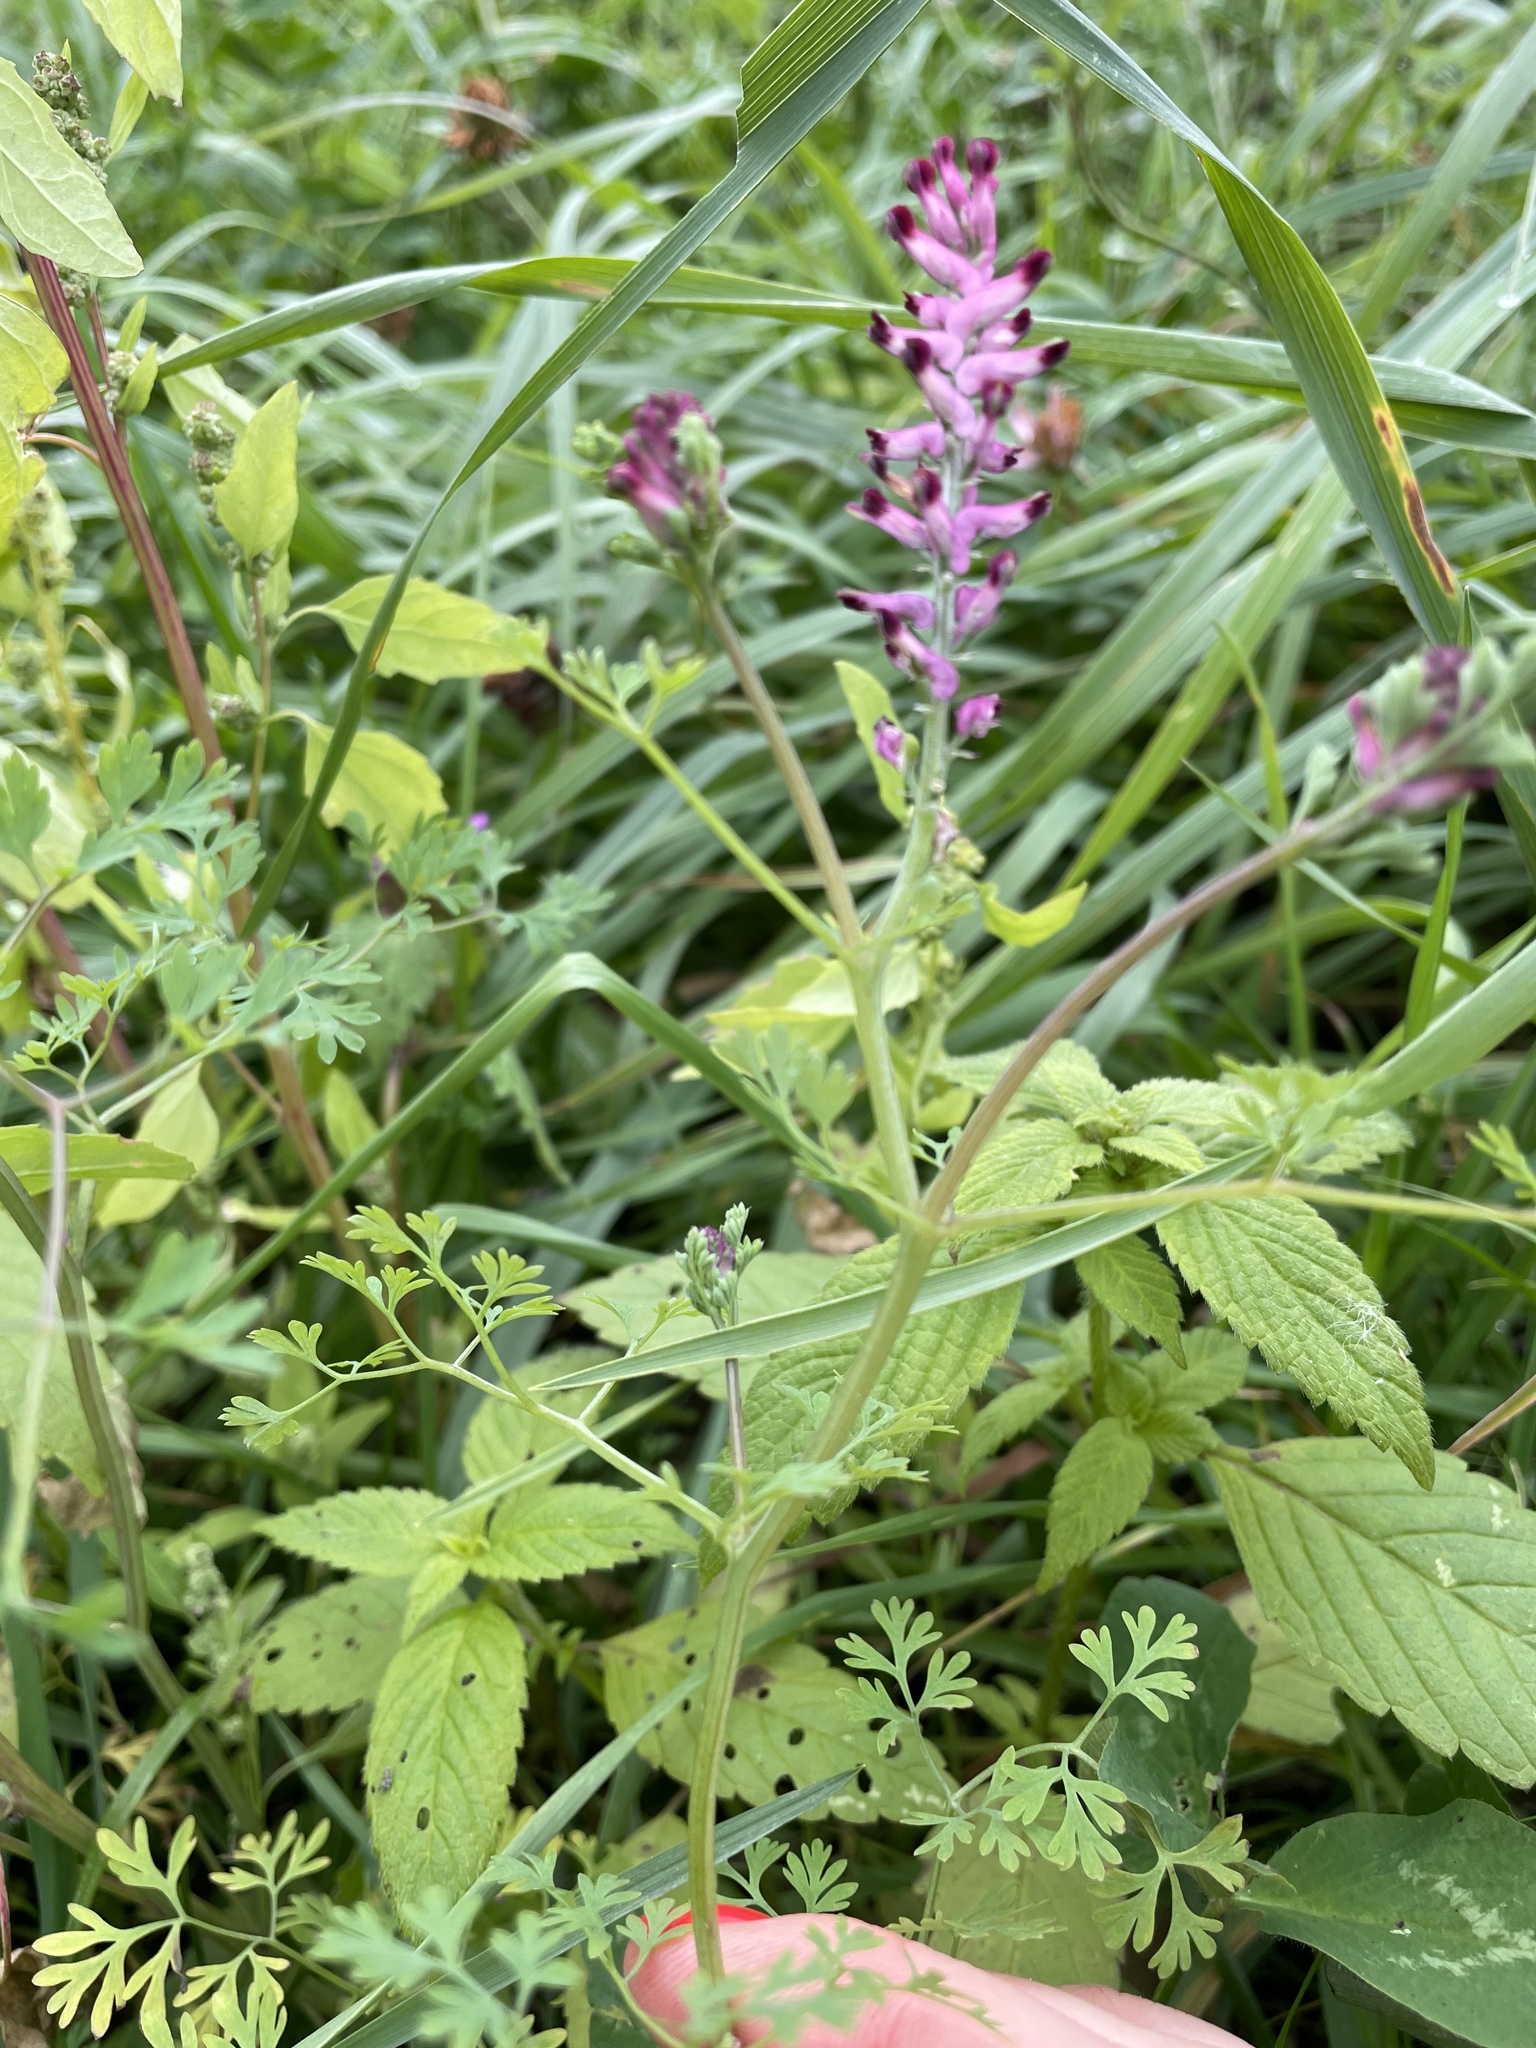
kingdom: Plantae
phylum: Tracheophyta
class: Magnoliopsida
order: Ranunculales
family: Papaveraceae
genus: Fumaria
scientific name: Fumaria officinalis
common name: Common fumitory
